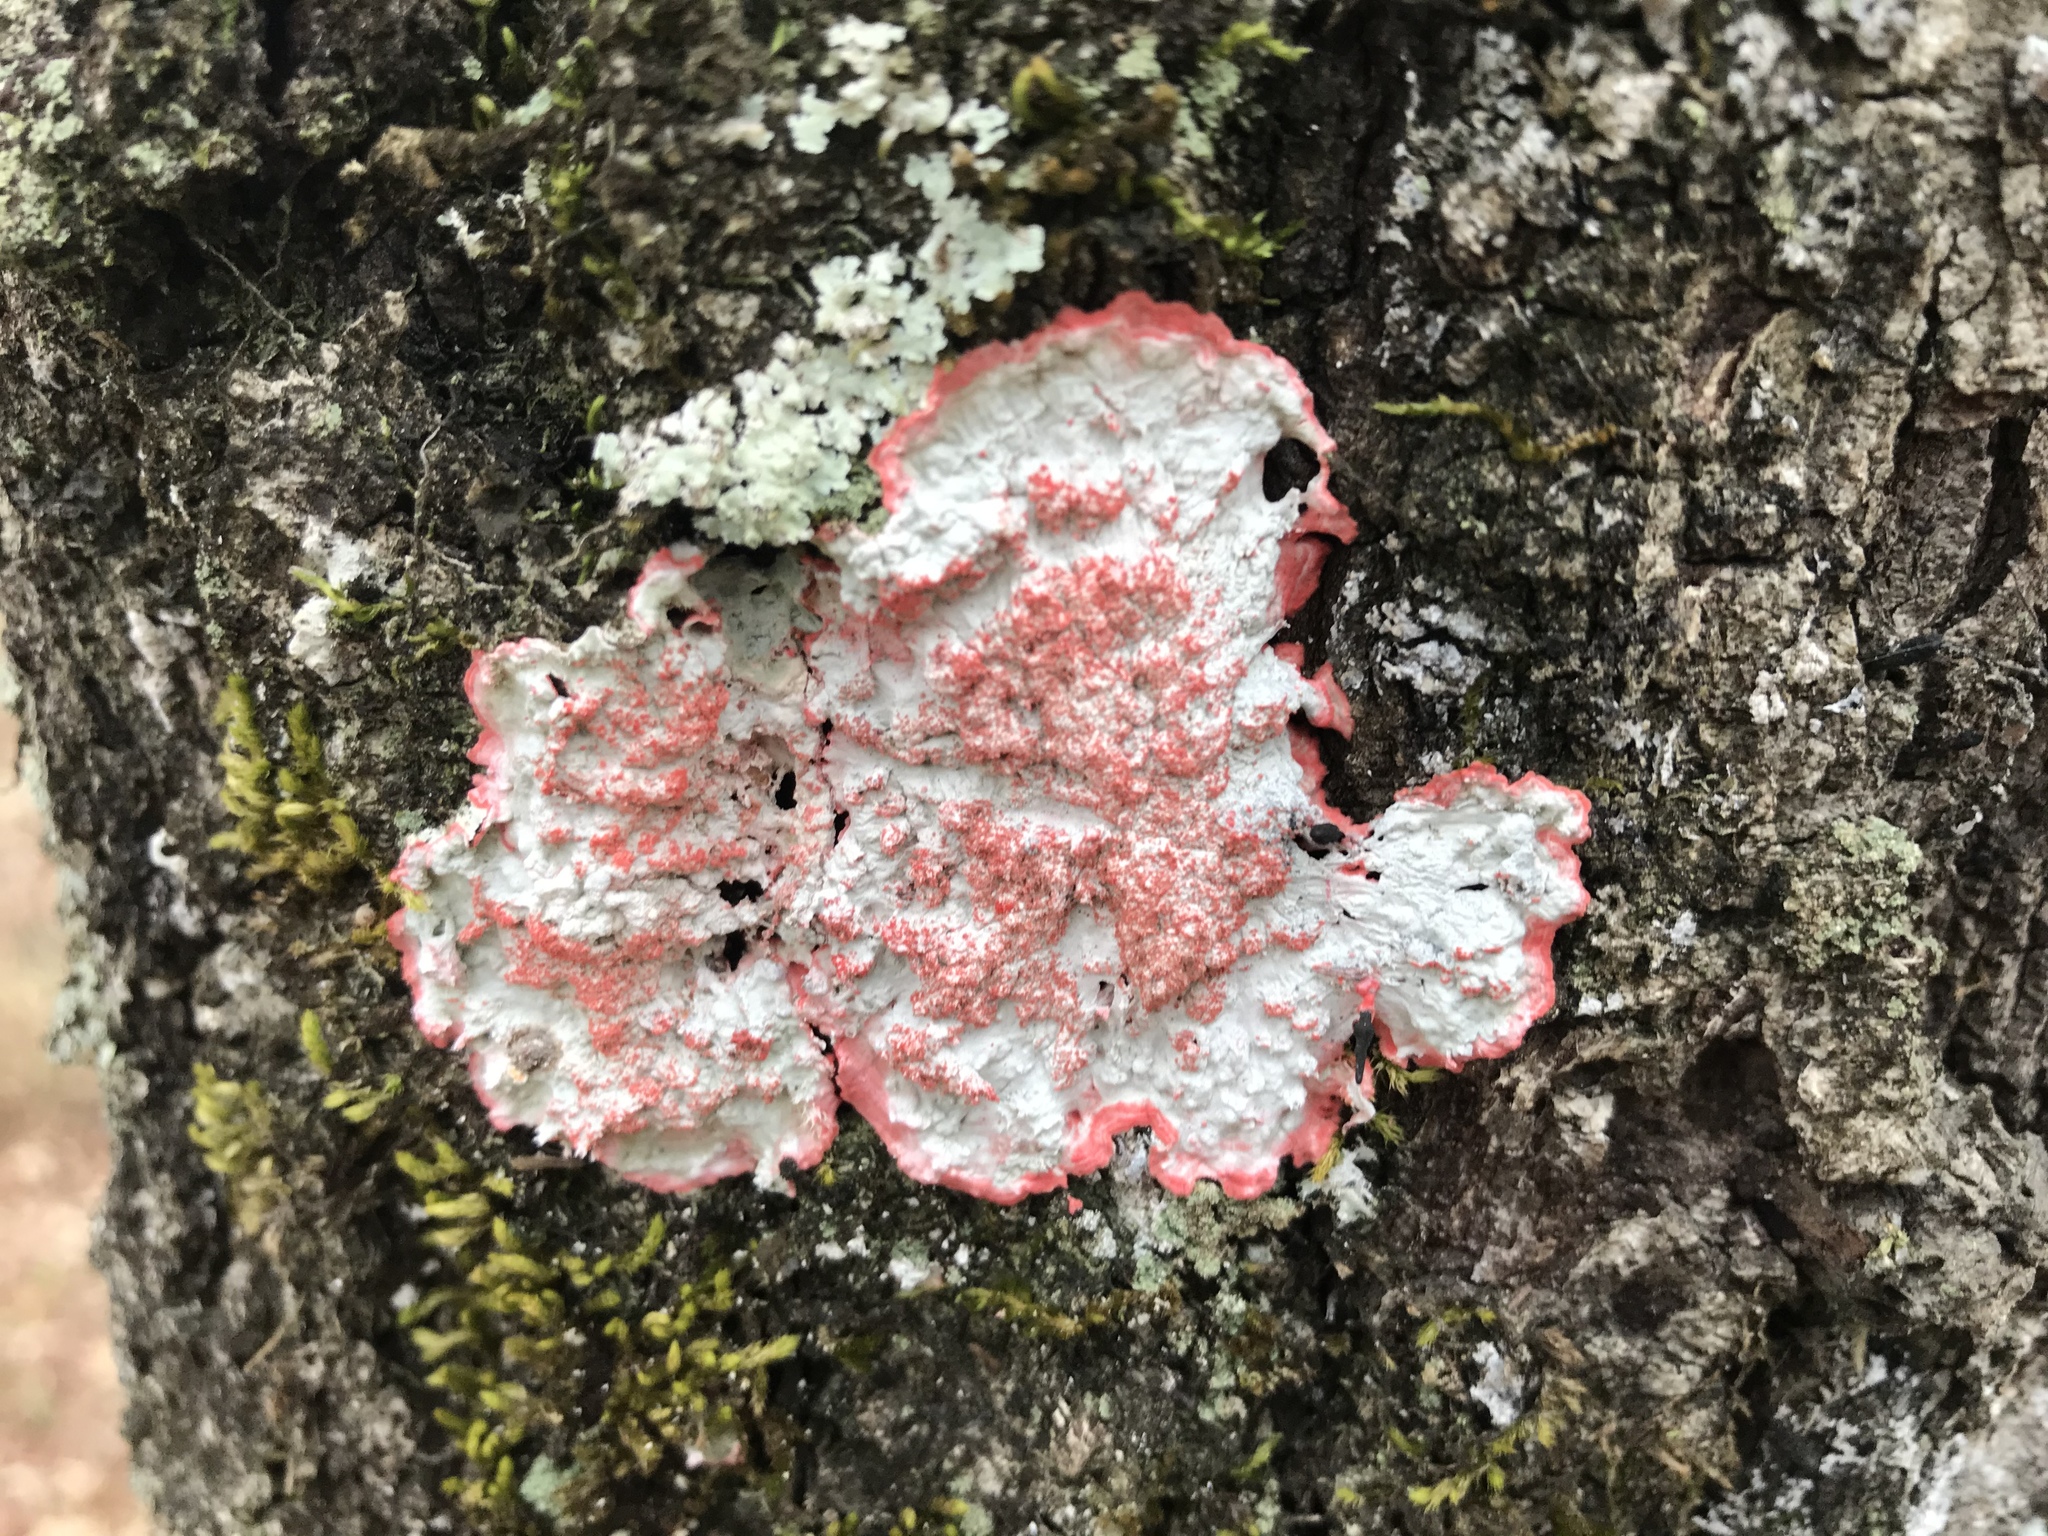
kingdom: Fungi
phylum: Ascomycota
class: Arthoniomycetes
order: Arthoniales
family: Arthoniaceae
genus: Herpothallon
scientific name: Herpothallon rubrocinctum
